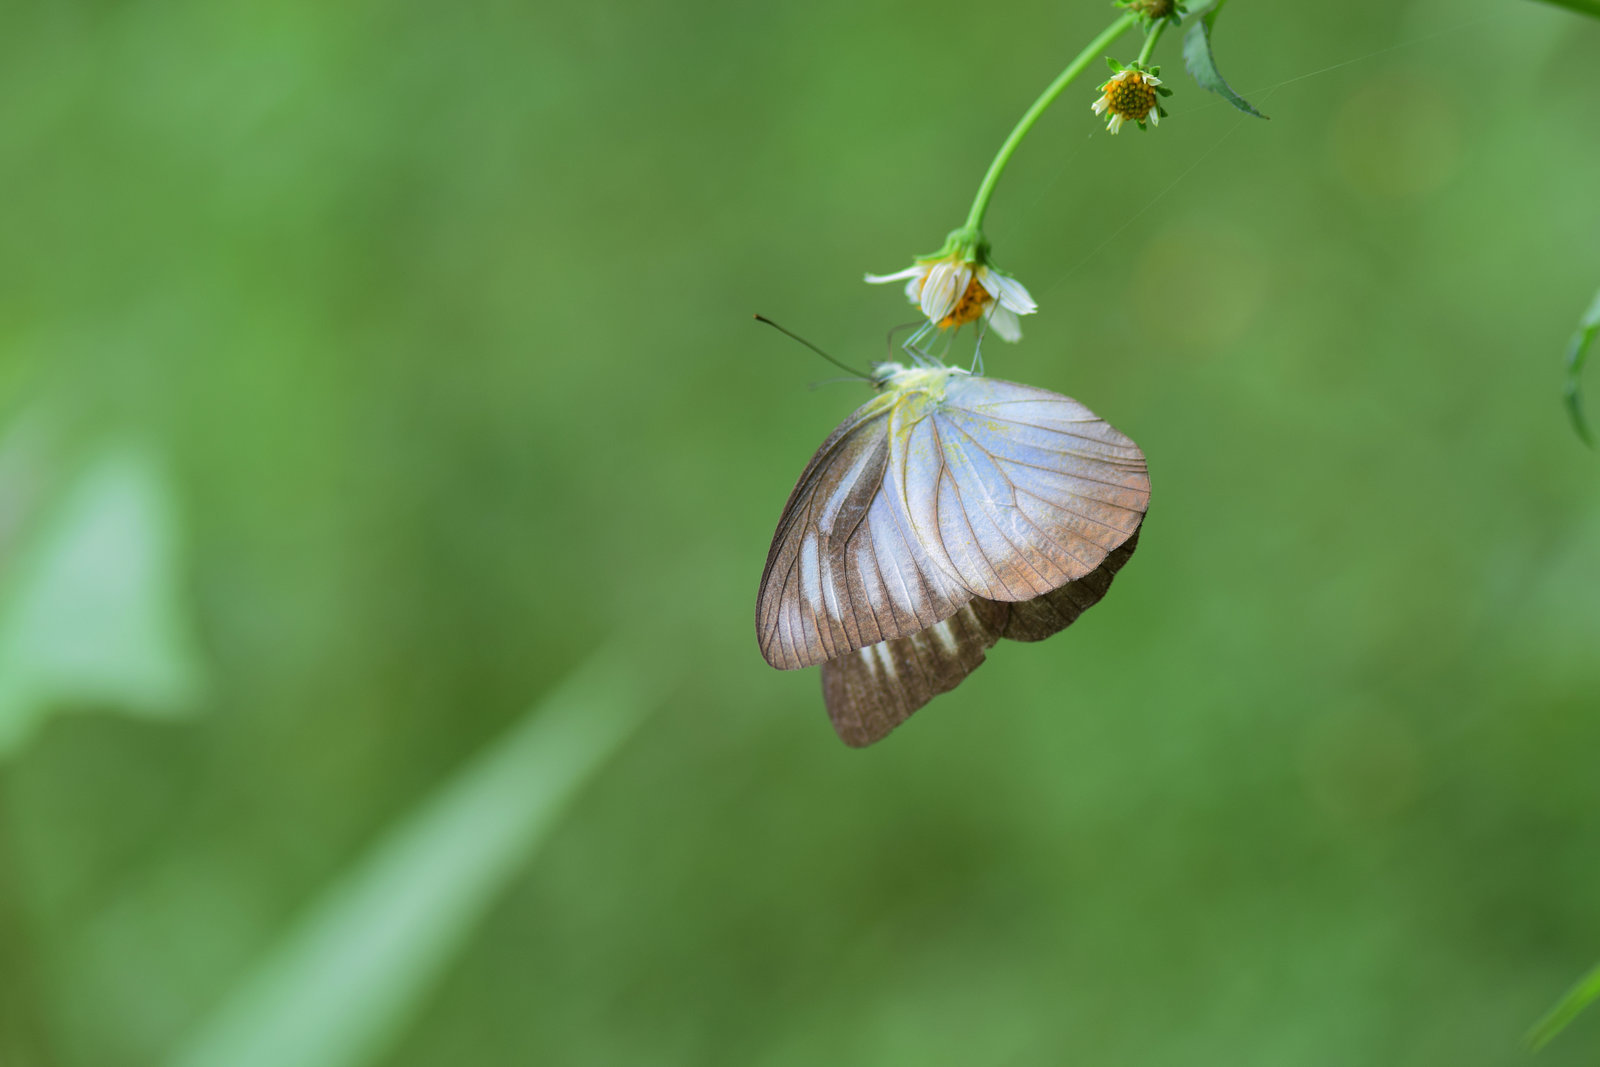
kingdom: Animalia
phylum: Arthropoda
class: Insecta
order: Lepidoptera
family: Pieridae
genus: Appias
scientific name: Appias lyncida
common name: Chocolate albatross
